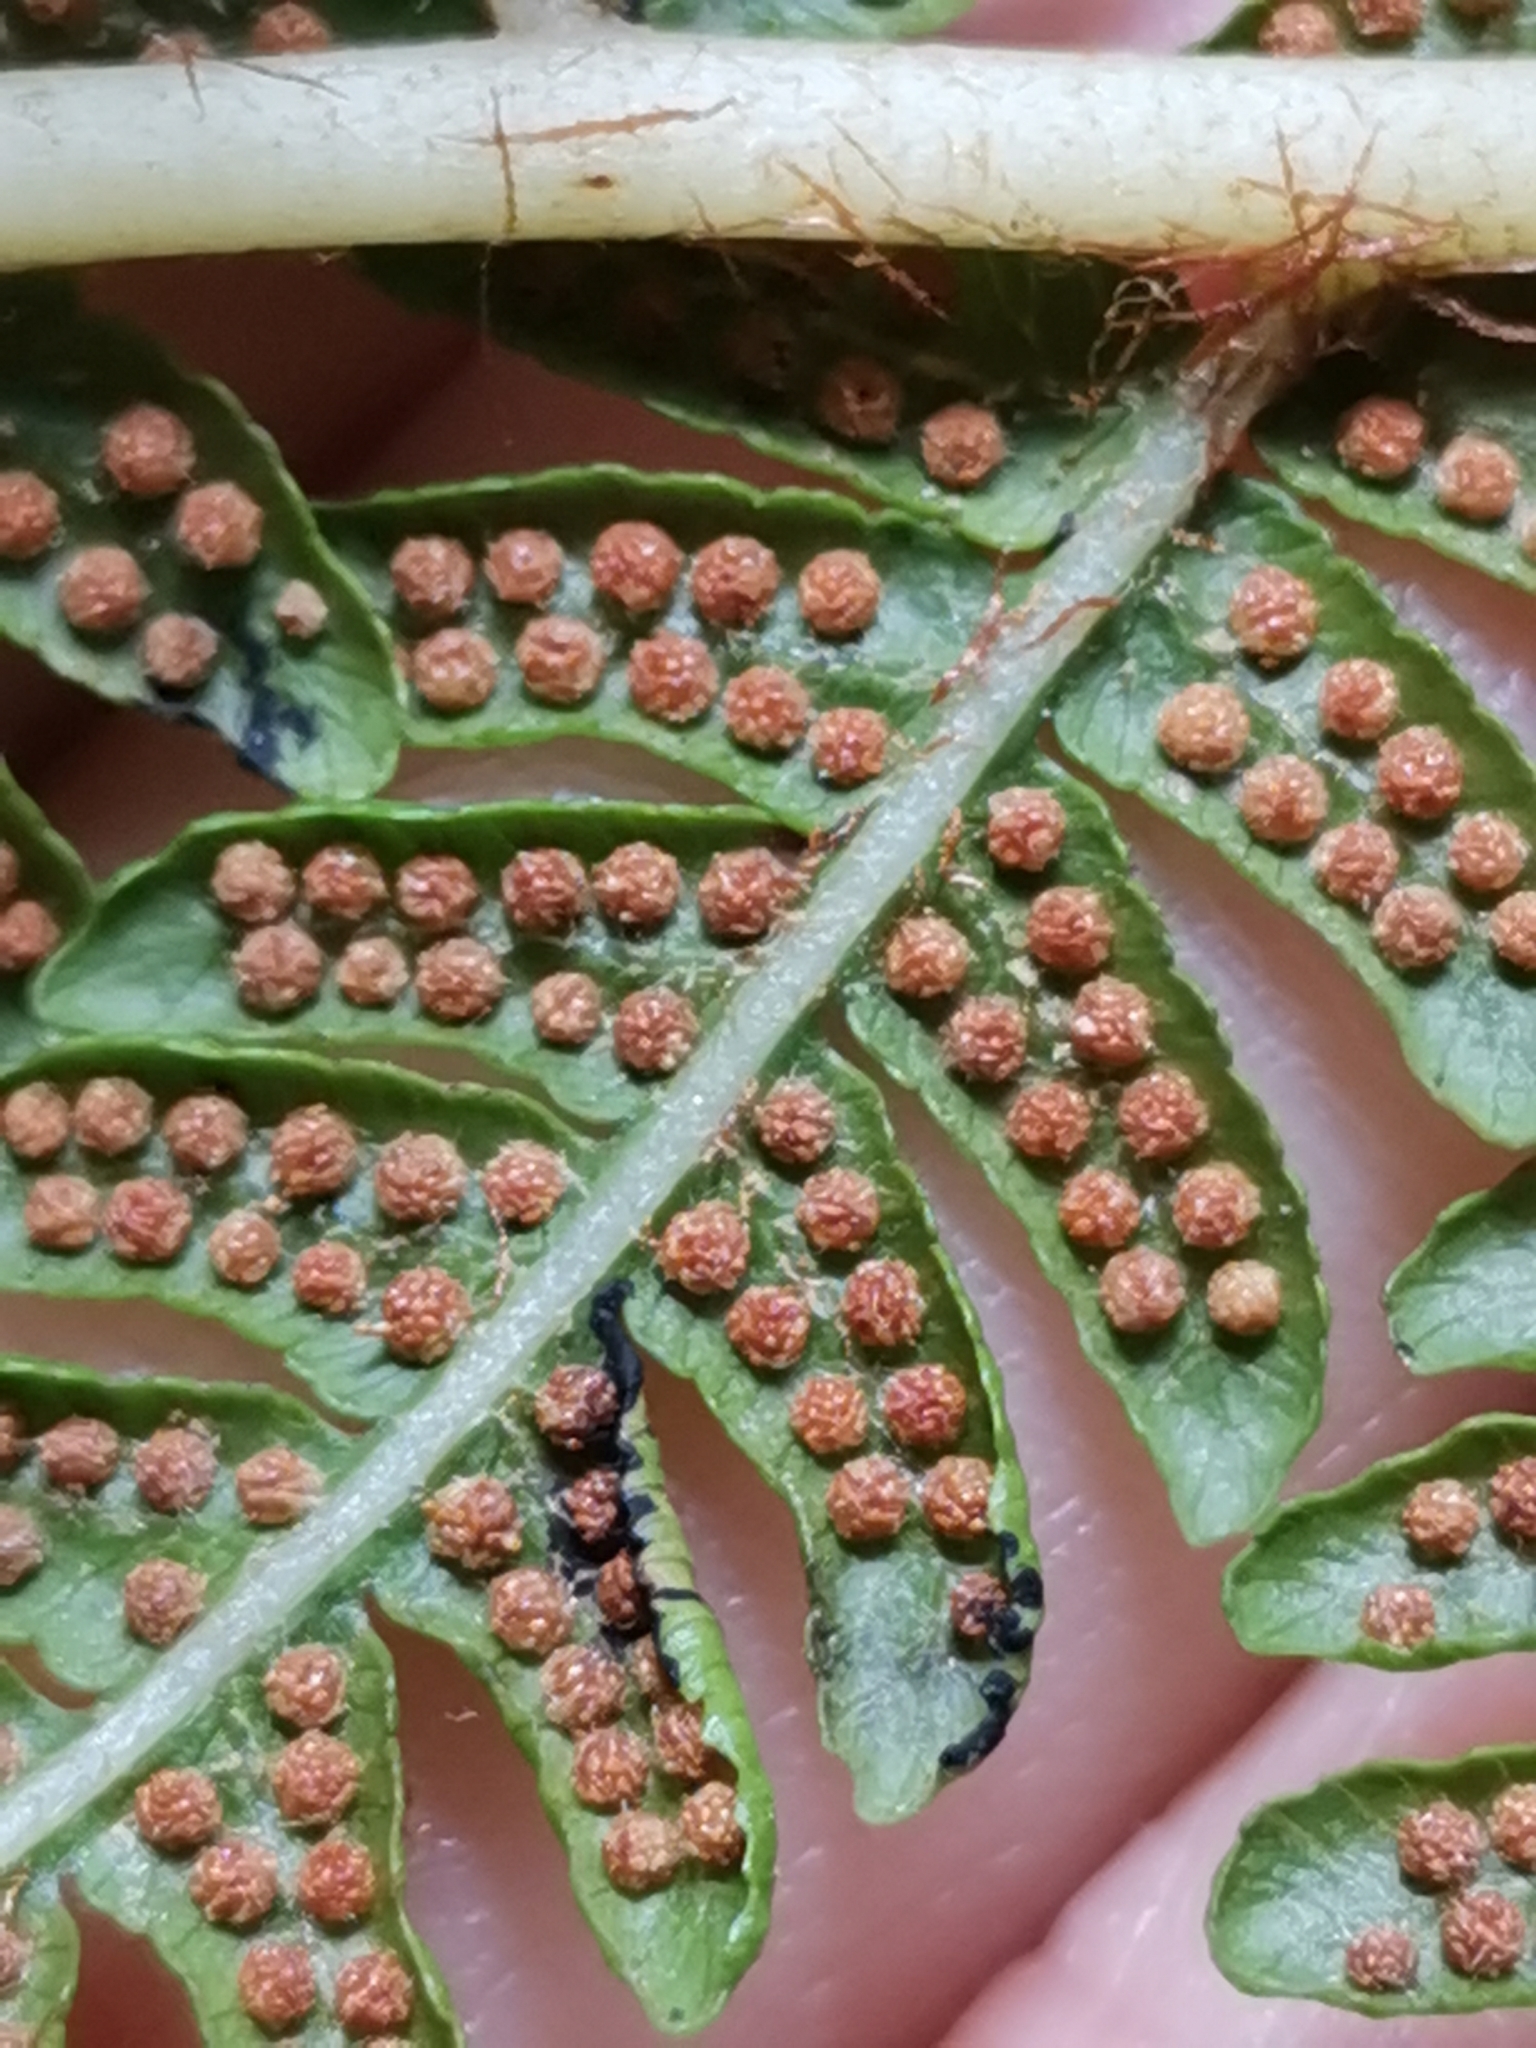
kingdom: Plantae
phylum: Tracheophyta
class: Polypodiopsida
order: Cyatheales
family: Cyatheaceae
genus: Sphaeropteris
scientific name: Sphaeropteris cooperi
